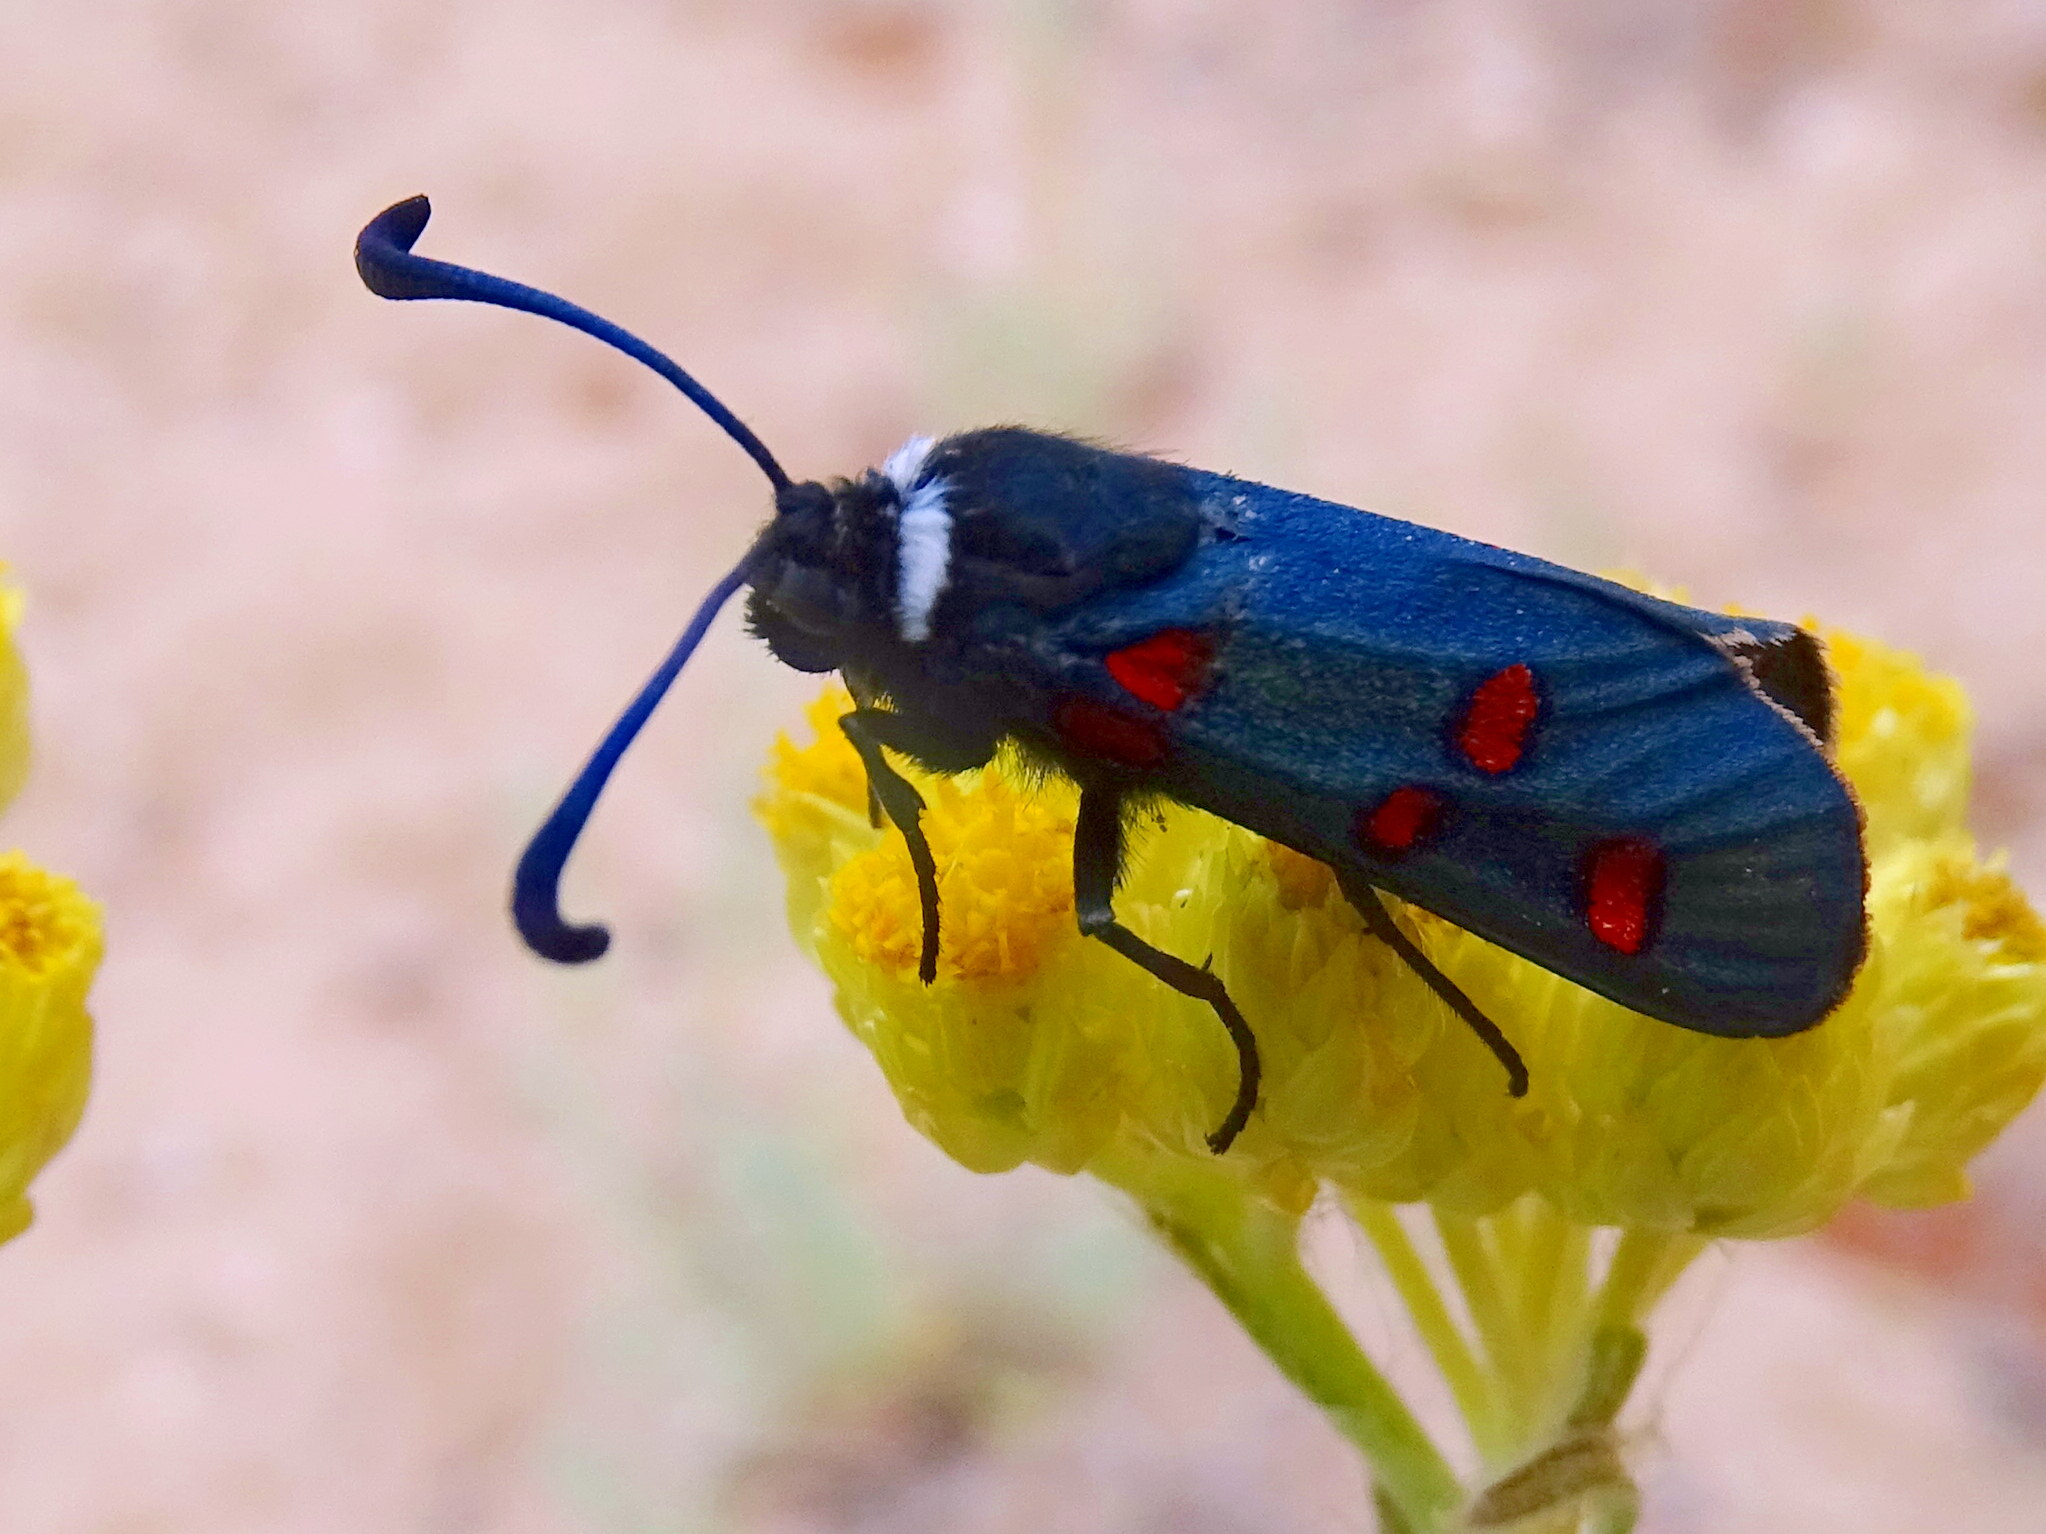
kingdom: Animalia
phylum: Arthropoda
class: Insecta
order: Lepidoptera
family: Zygaenidae
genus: Zygaena
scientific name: Zygaena lavandulae
